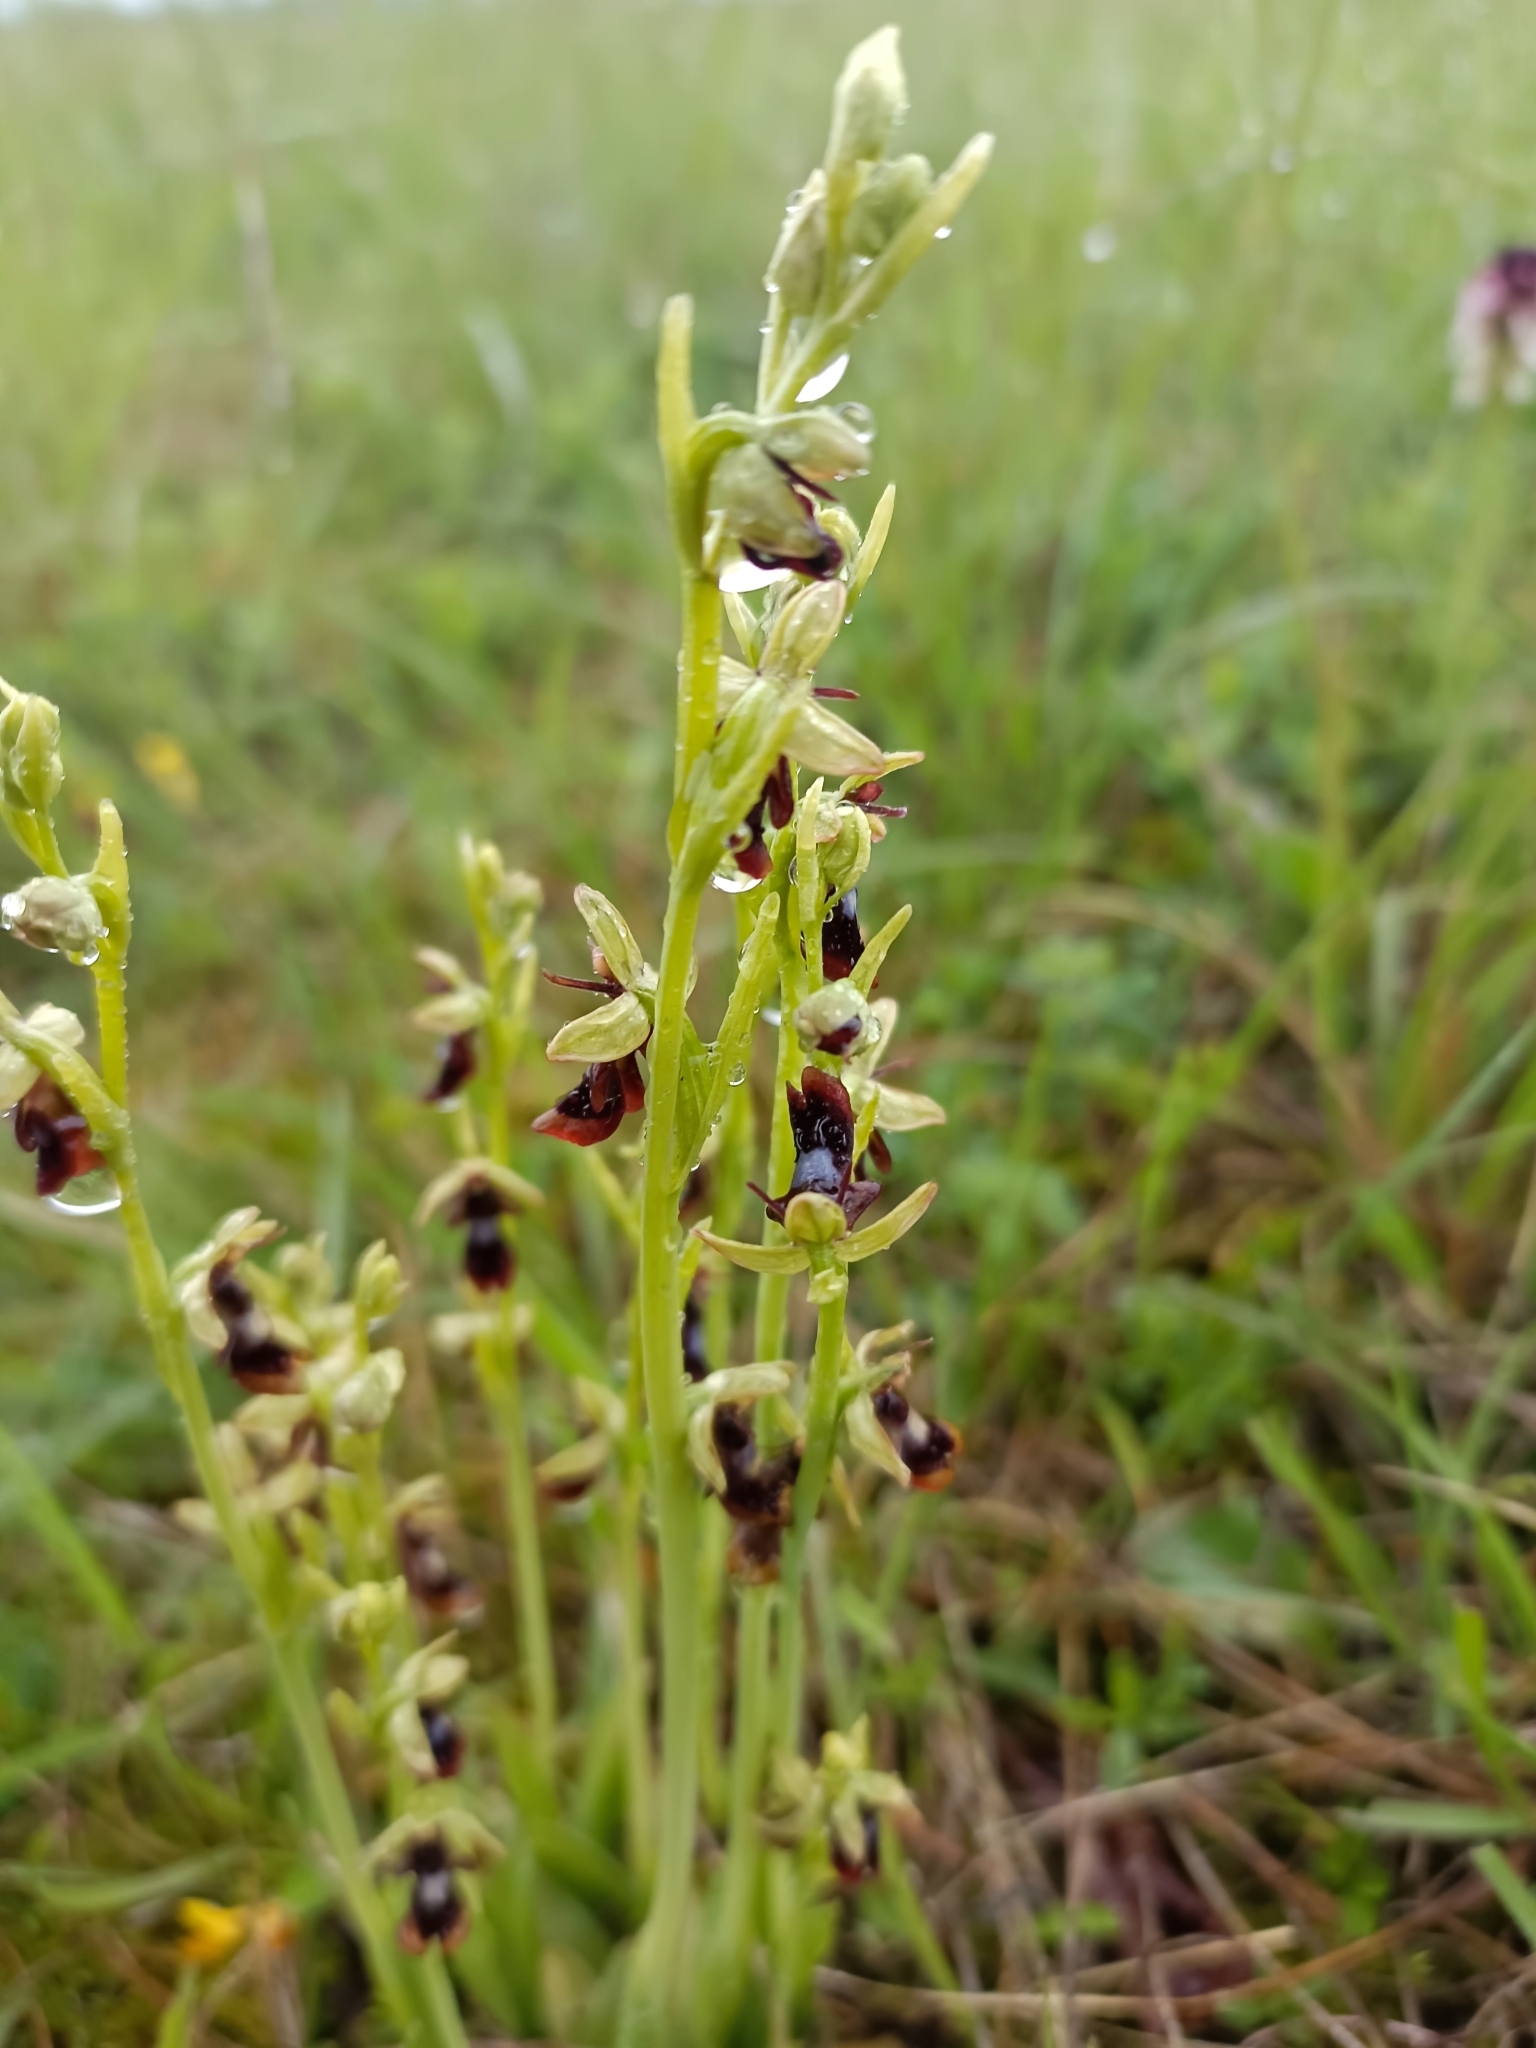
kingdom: Plantae
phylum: Tracheophyta
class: Liliopsida
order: Asparagales
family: Orchidaceae
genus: Ophrys
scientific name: Ophrys insectifera
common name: Fly orchid
